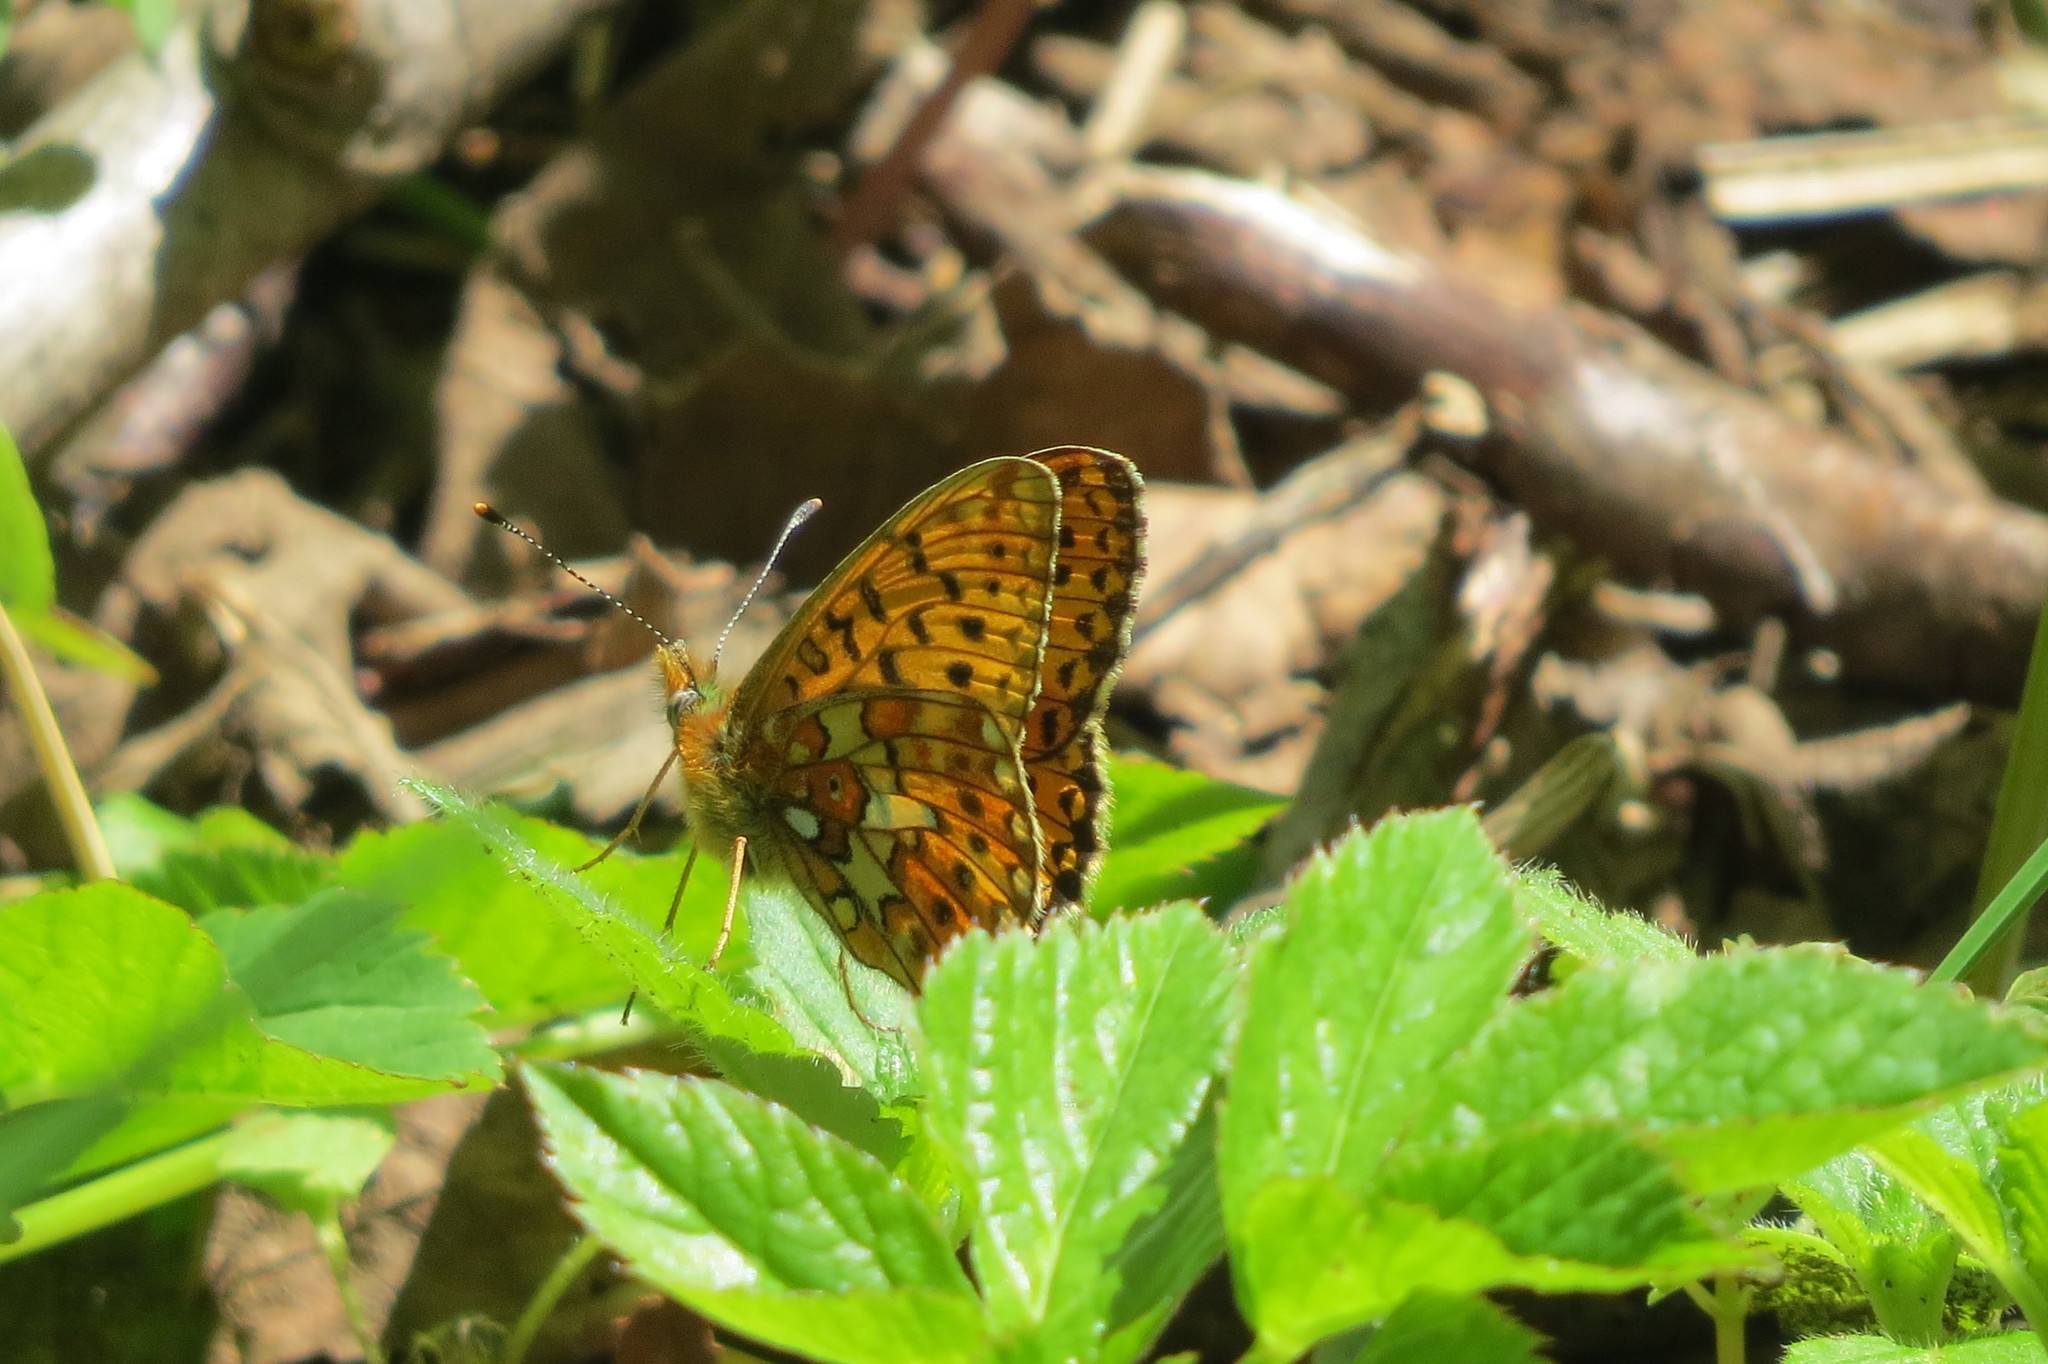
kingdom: Animalia
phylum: Arthropoda
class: Insecta
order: Lepidoptera
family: Nymphalidae
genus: Clossiana
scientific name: Clossiana euphrosyne
